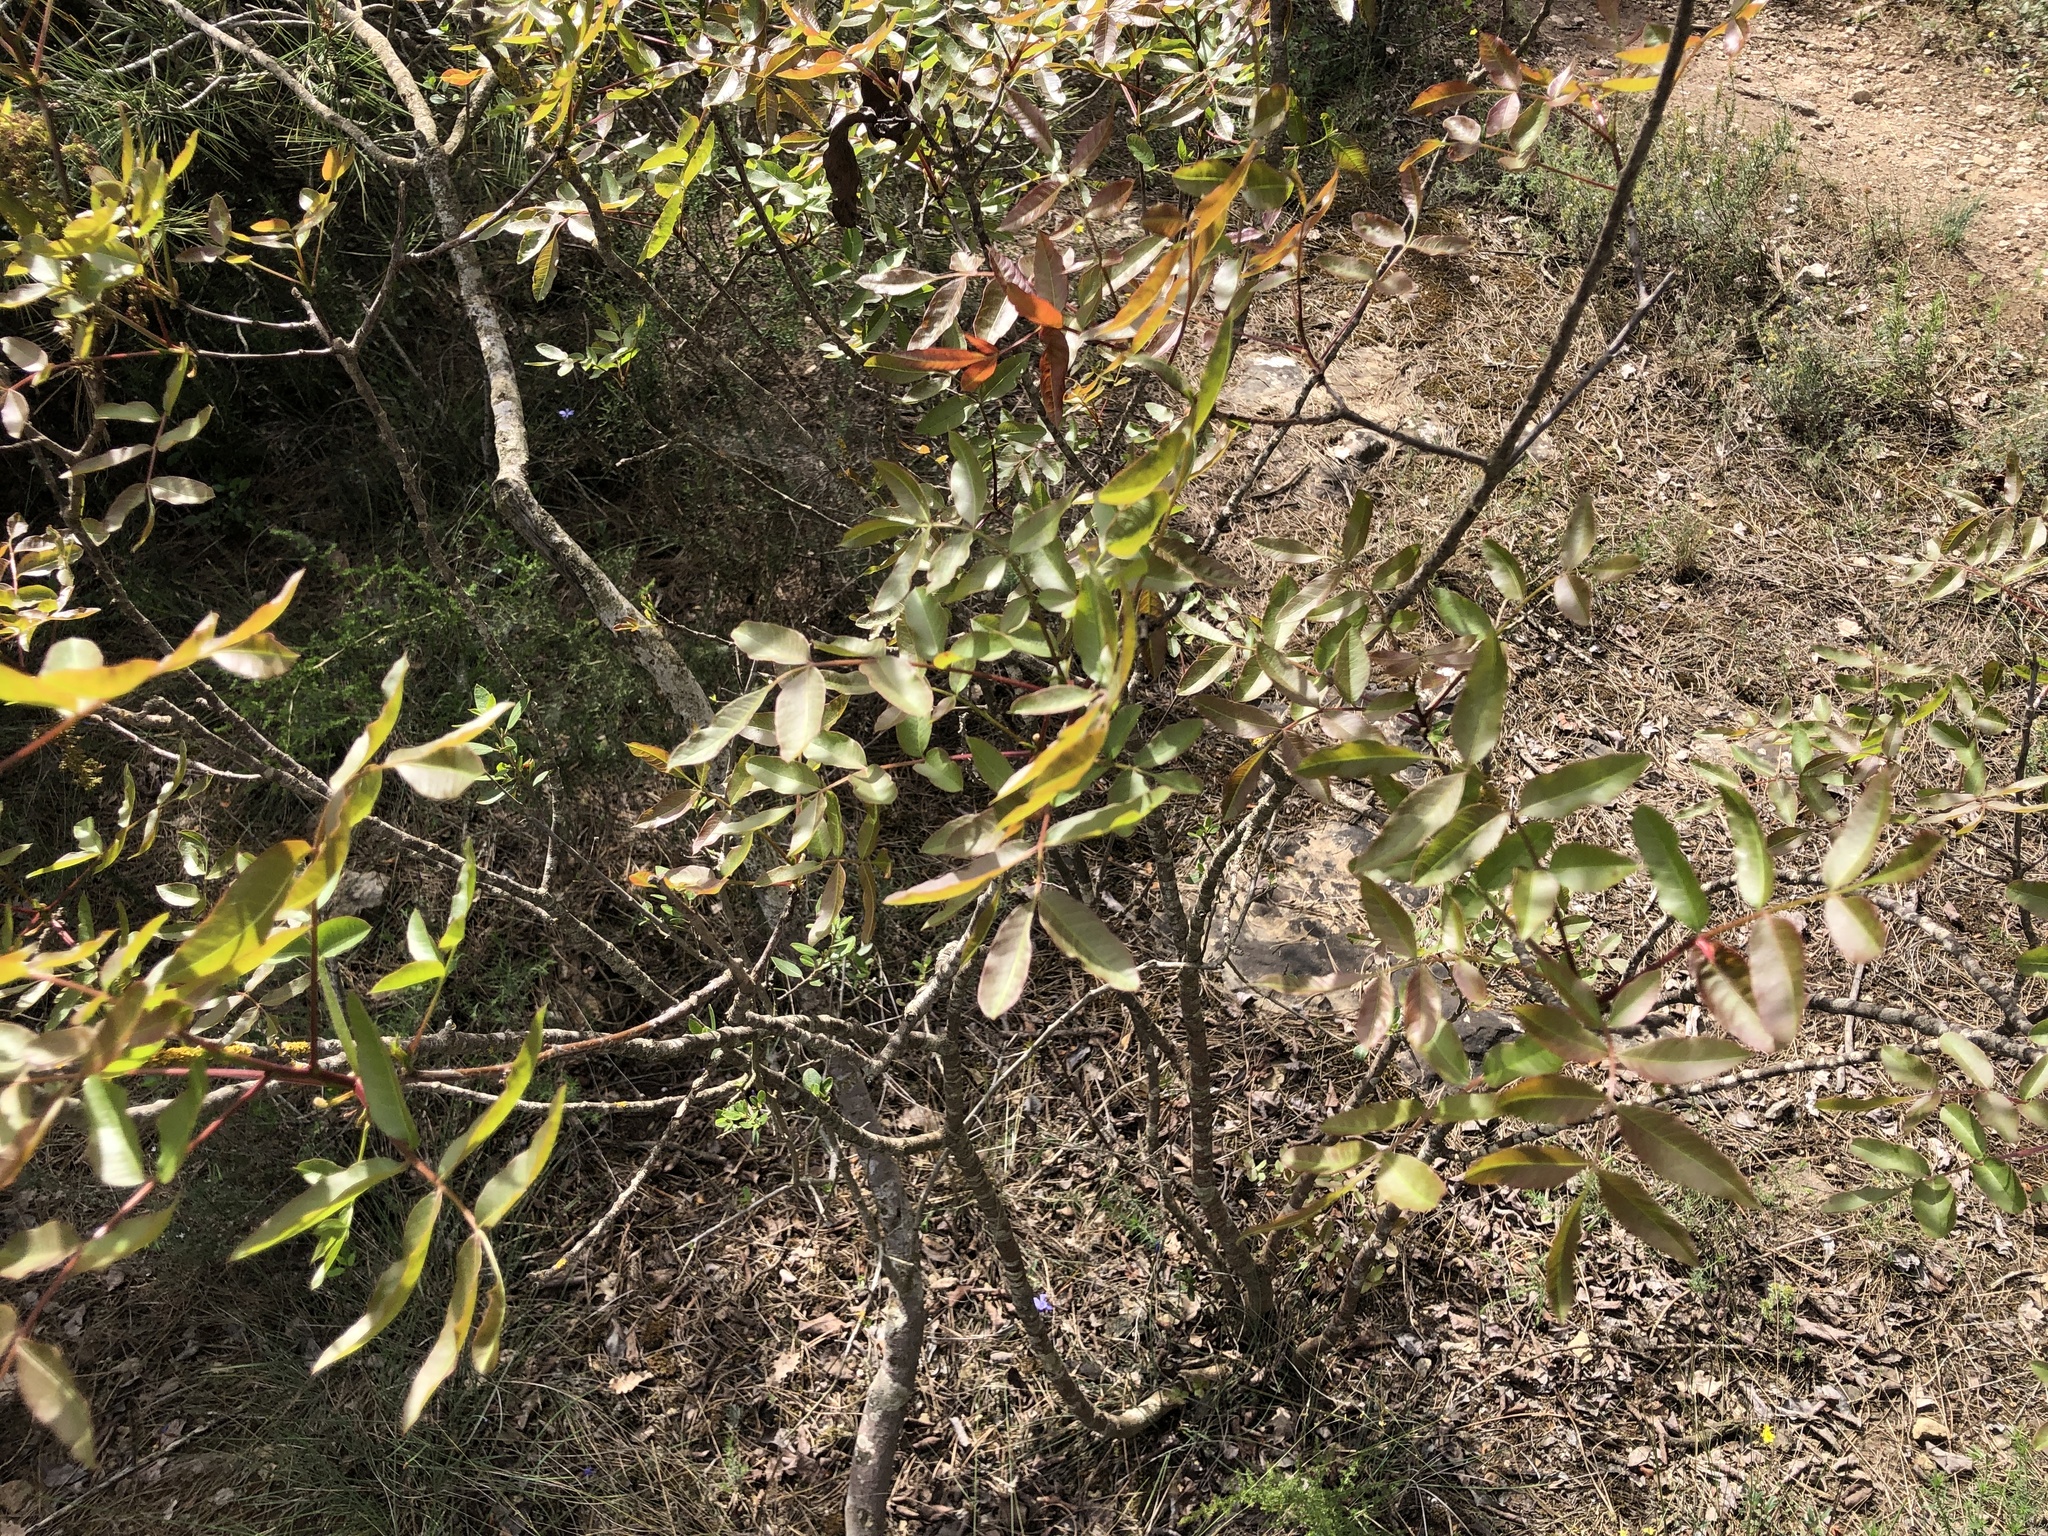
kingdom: Plantae
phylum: Tracheophyta
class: Magnoliopsida
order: Sapindales
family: Anacardiaceae
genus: Pistacia
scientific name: Pistacia terebinthus
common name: Terebinth
